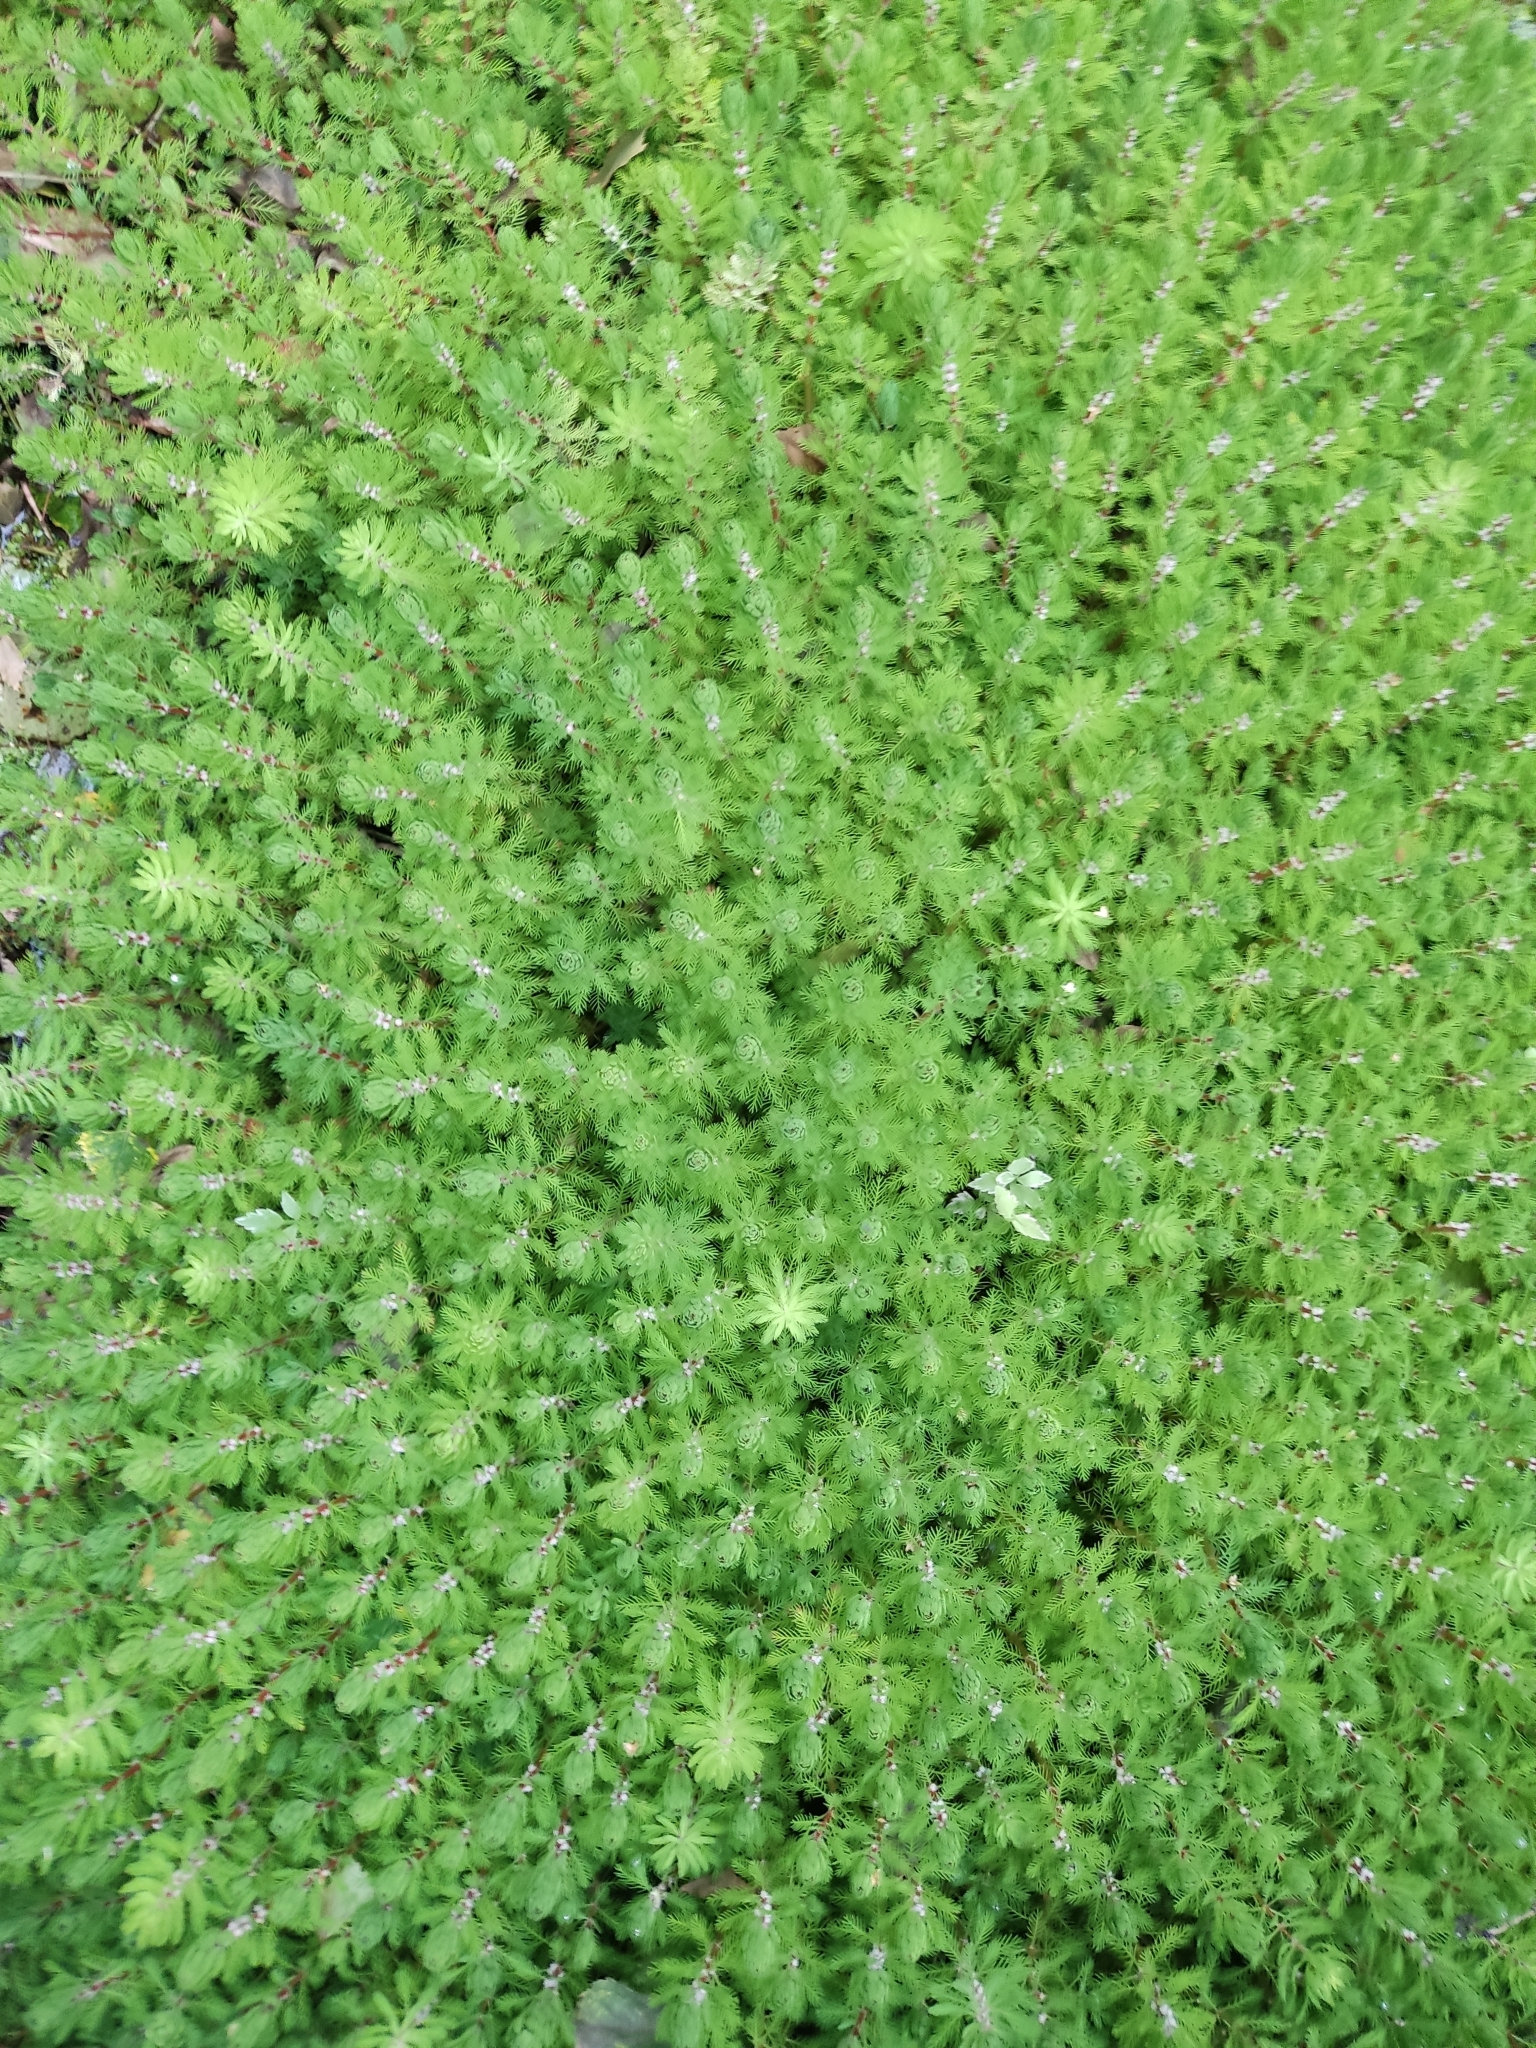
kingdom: Plantae
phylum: Tracheophyta
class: Magnoliopsida
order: Saxifragales
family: Haloragaceae
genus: Myriophyllum
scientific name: Myriophyllum aquaticum
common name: Parrot's feather
